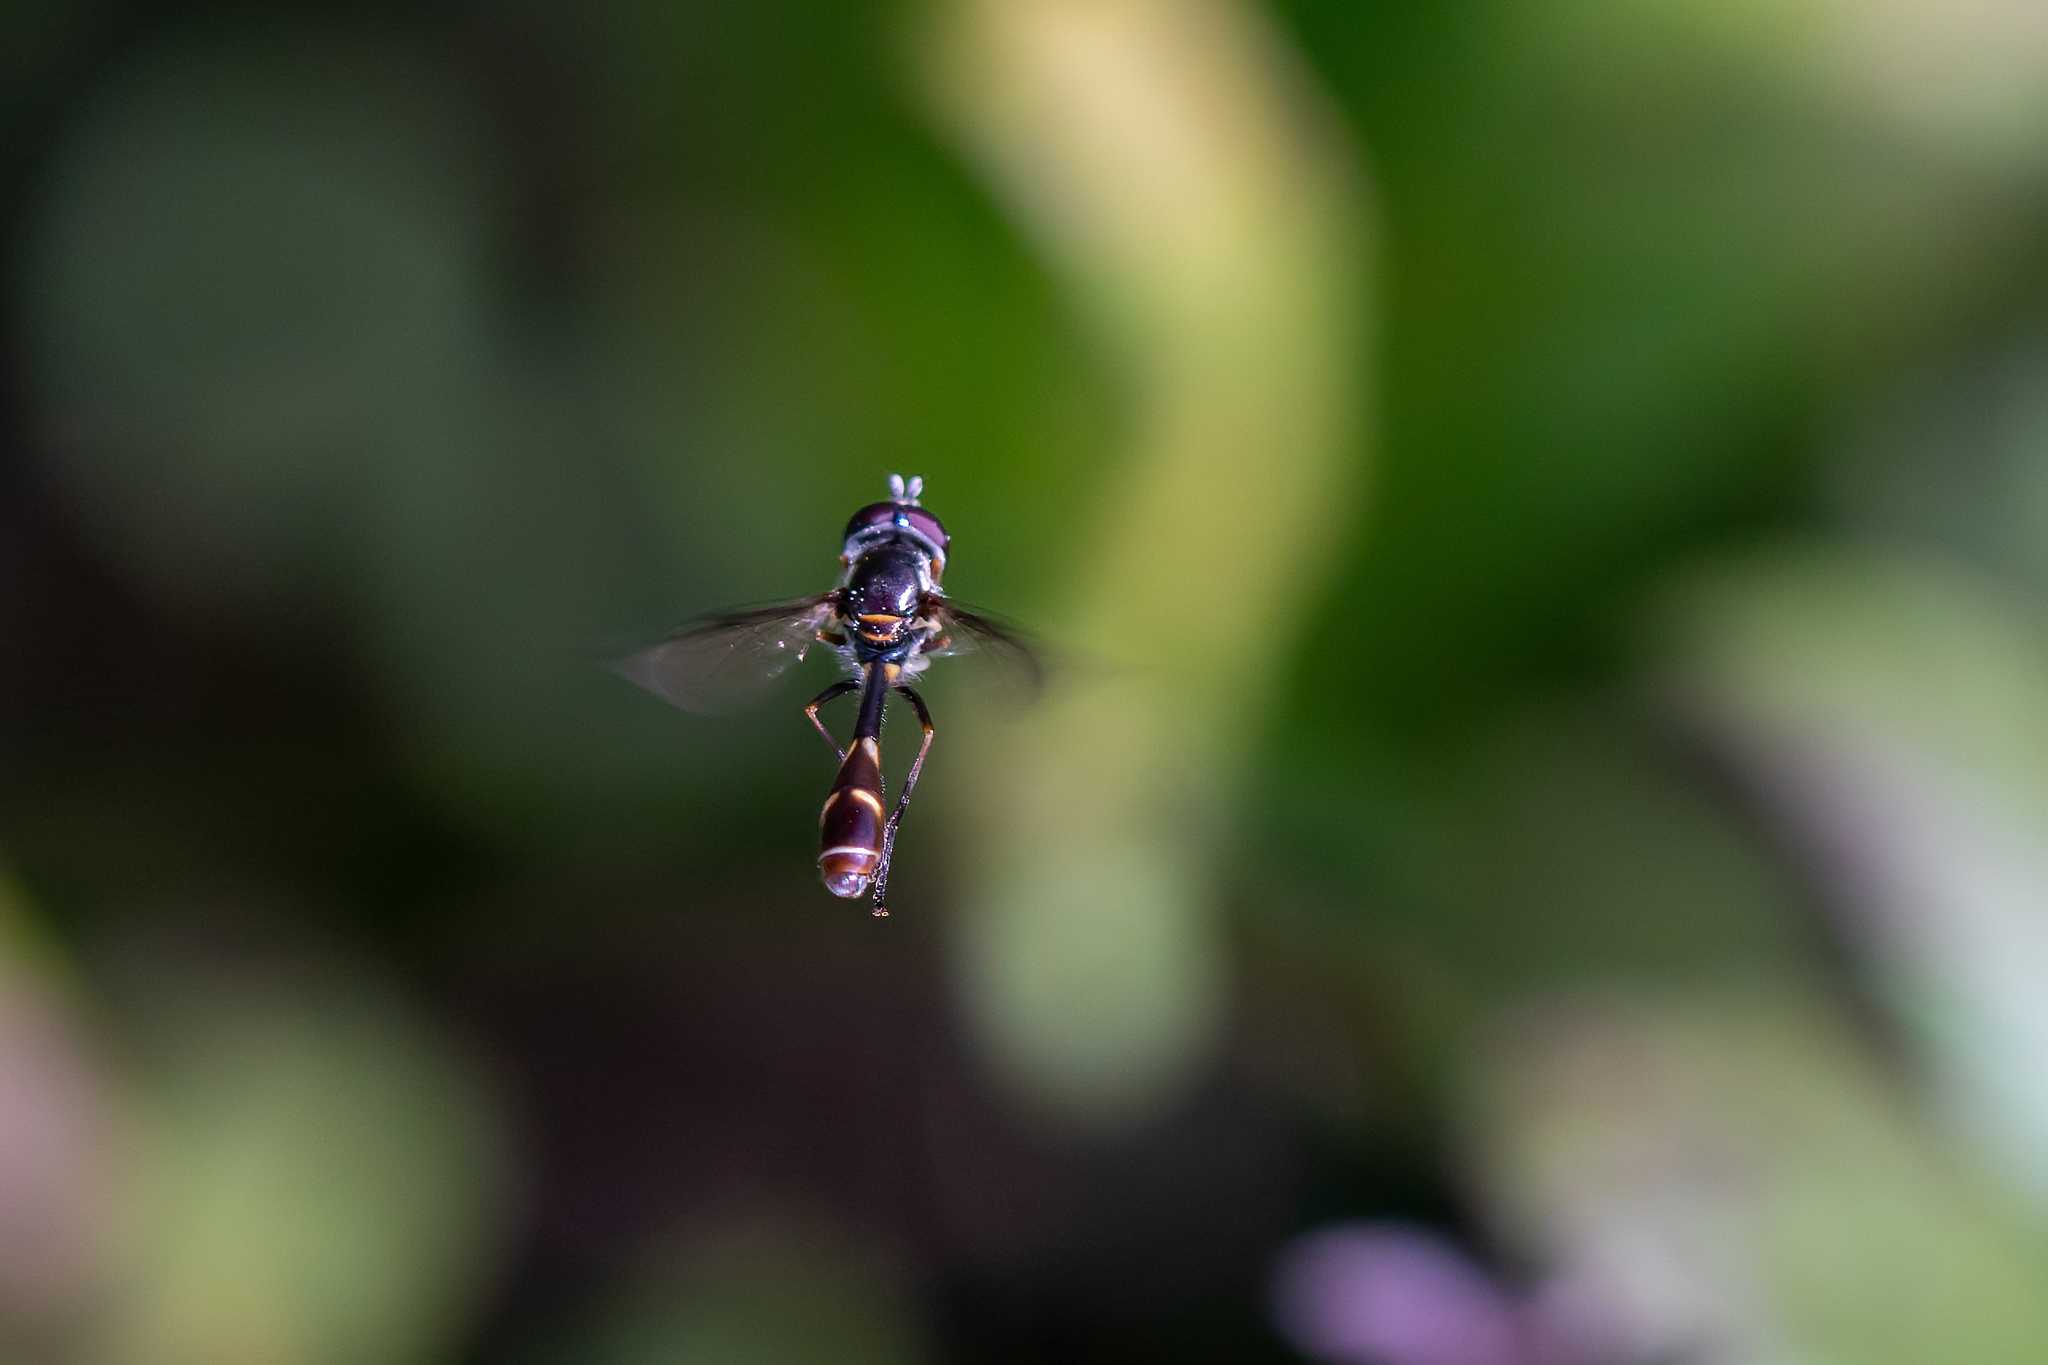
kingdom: Animalia
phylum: Arthropoda
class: Insecta
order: Diptera
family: Syrphidae
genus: Dioprosopa
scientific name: Dioprosopa clavatus
